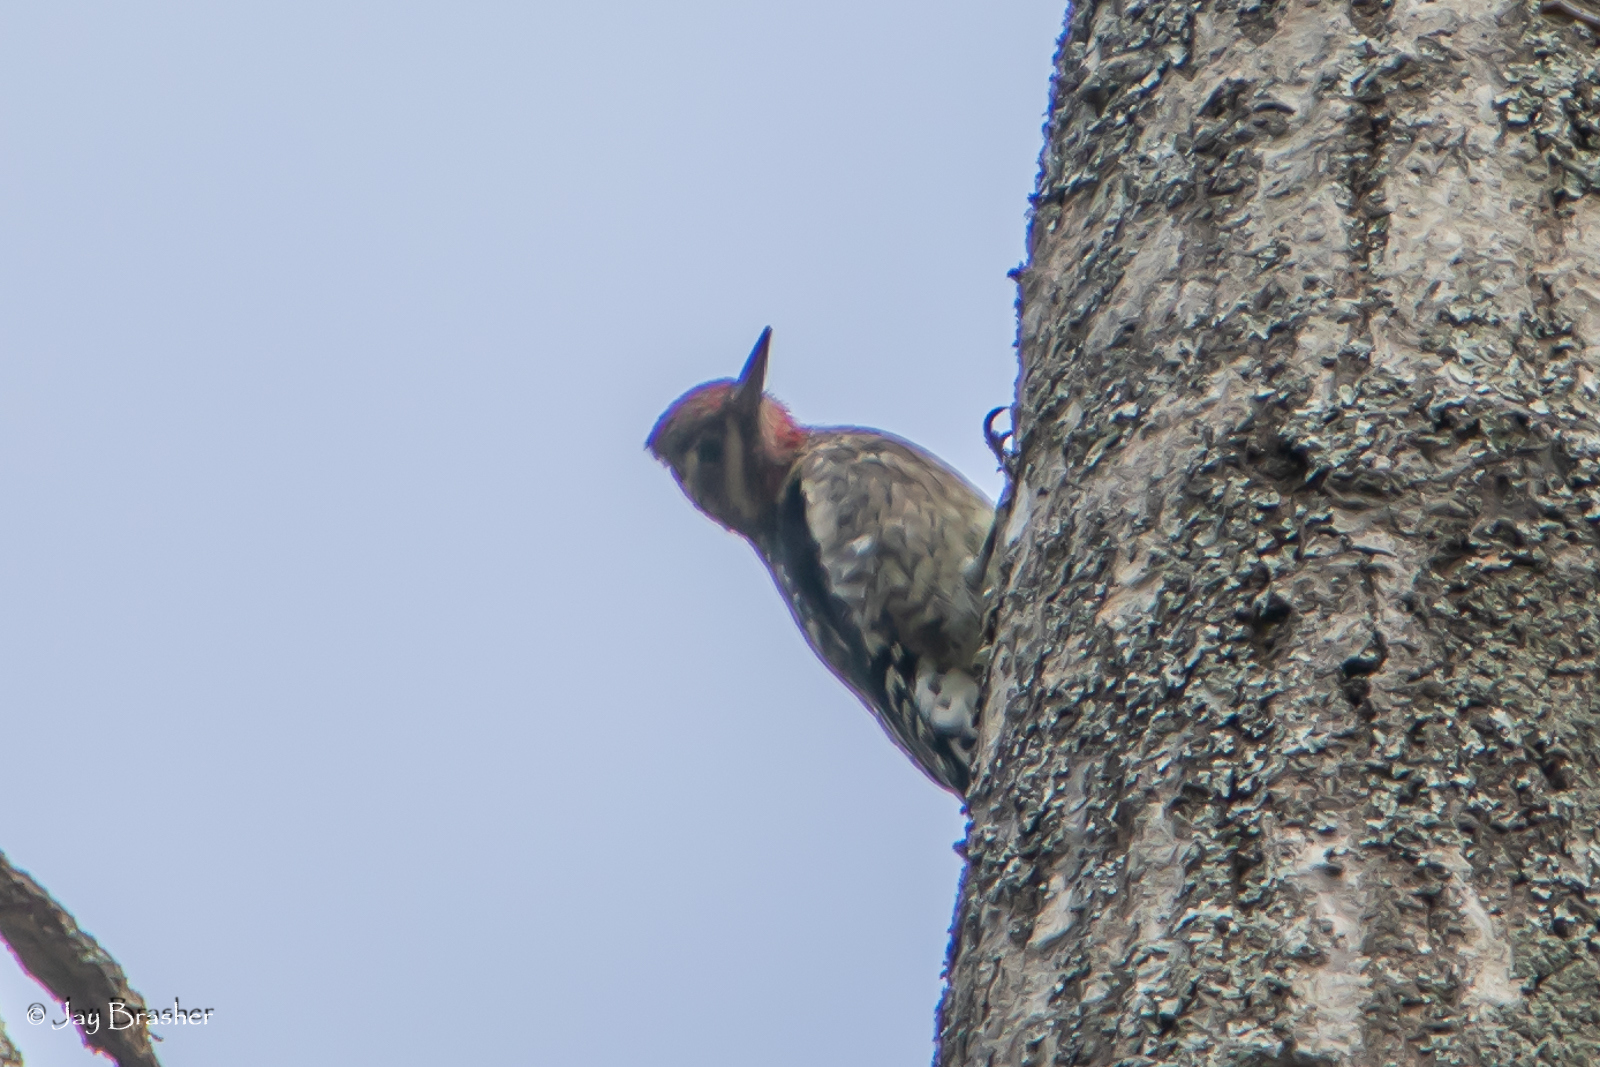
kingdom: Animalia
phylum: Chordata
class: Aves
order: Piciformes
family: Picidae
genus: Sphyrapicus
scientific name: Sphyrapicus varius
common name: Yellow-bellied sapsucker
